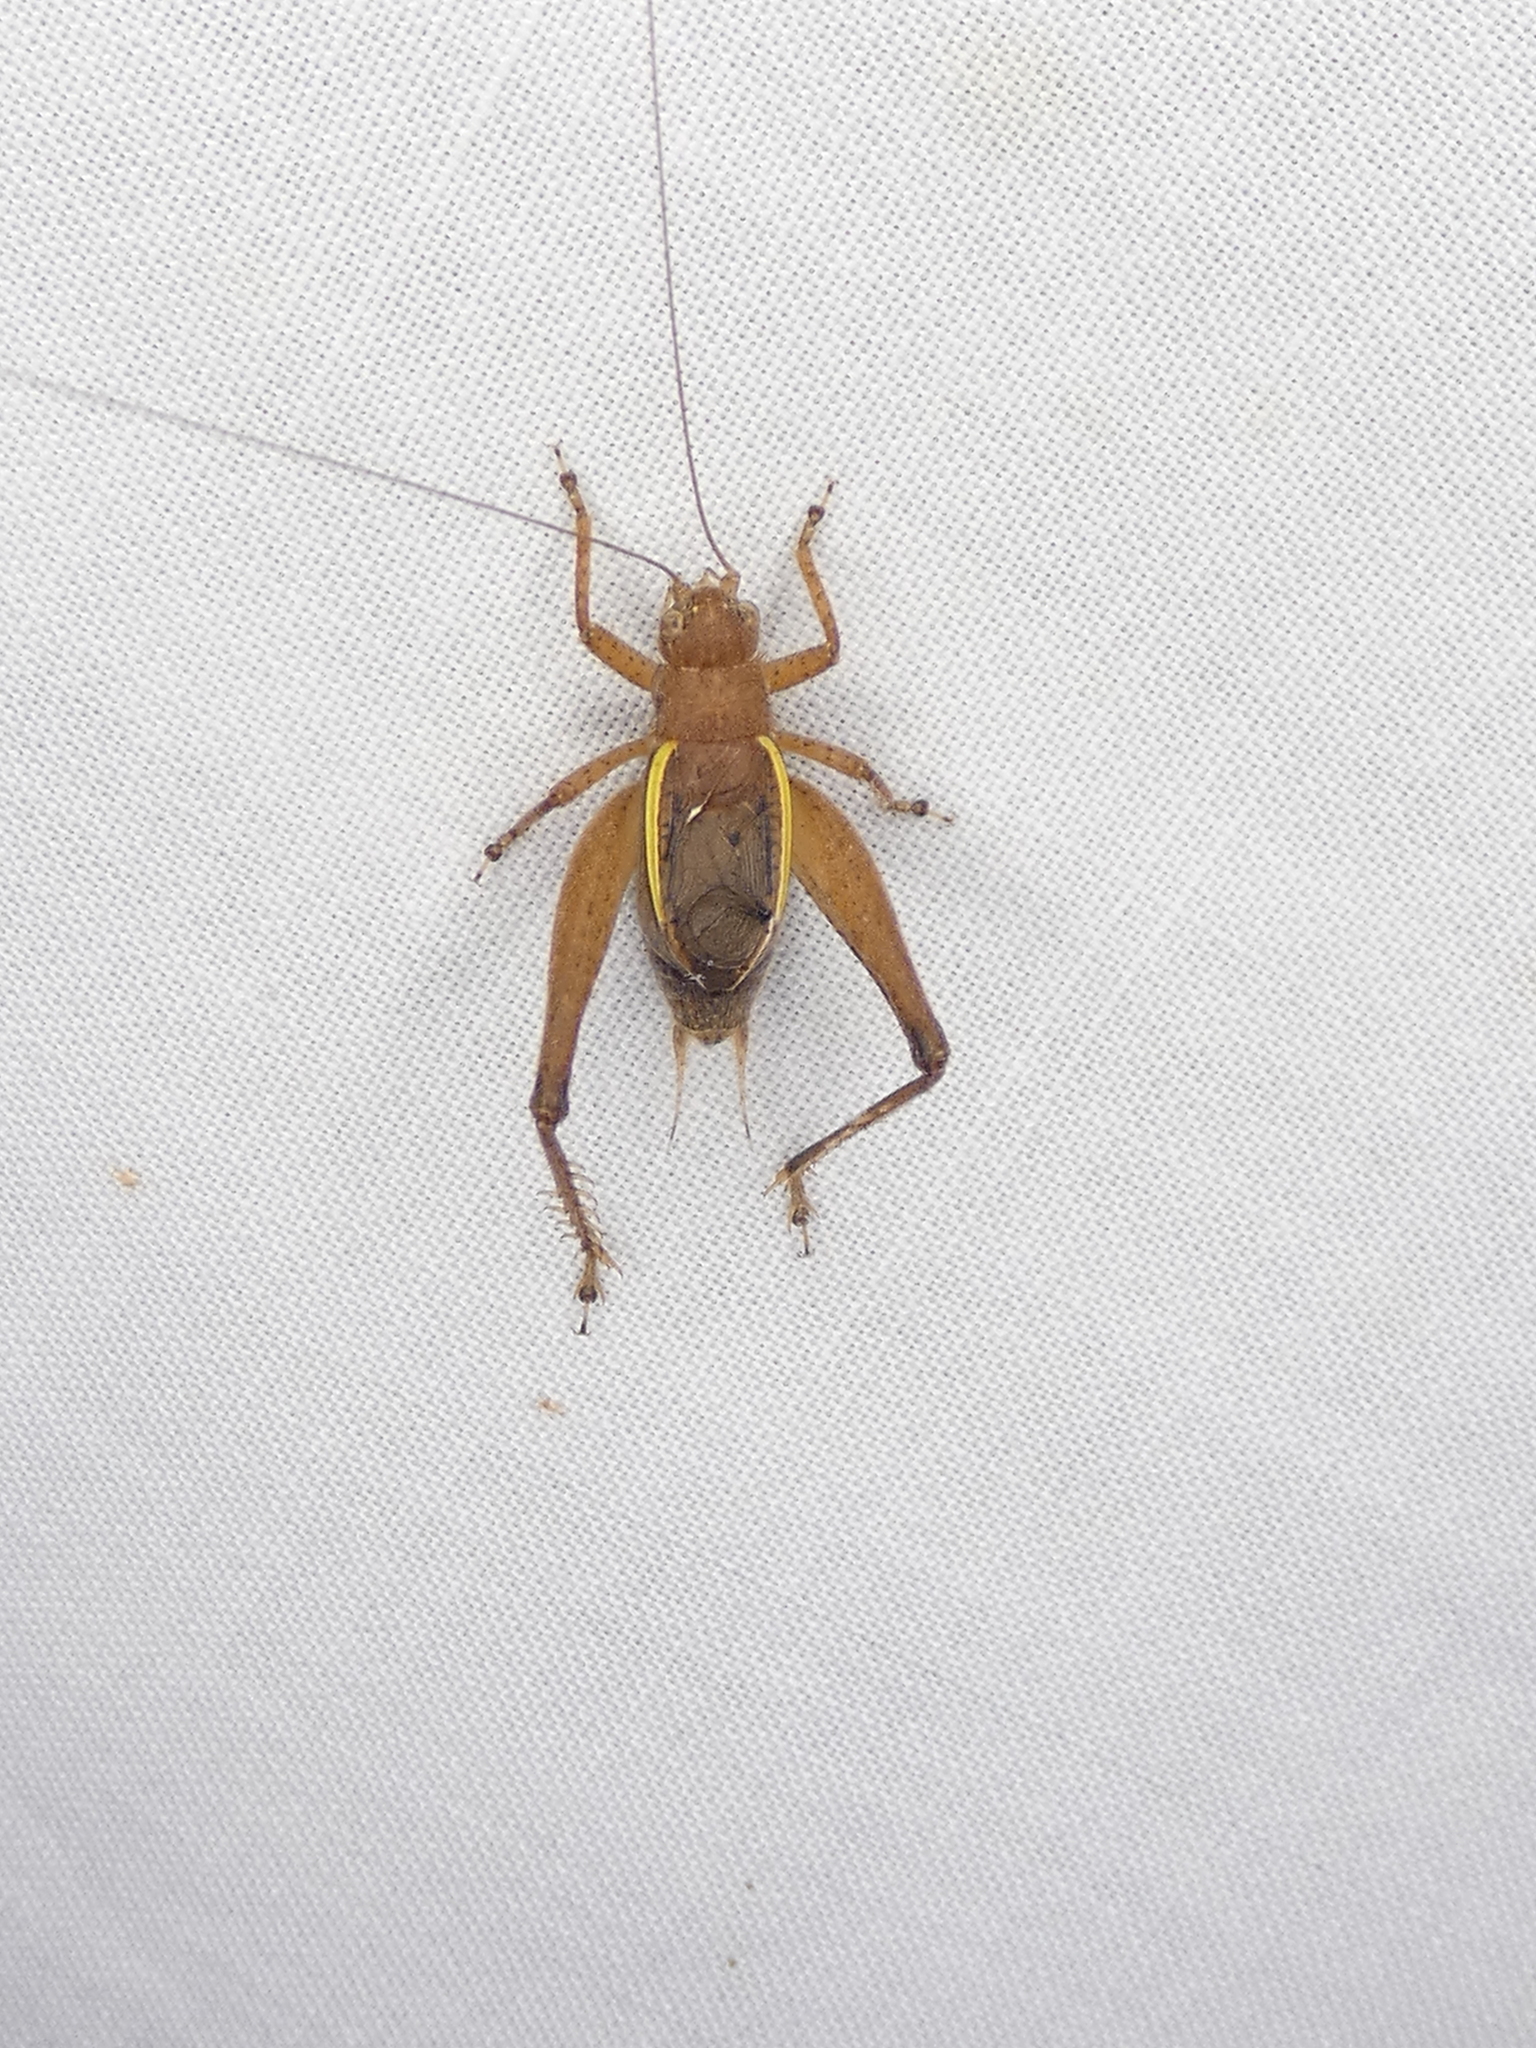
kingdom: Animalia
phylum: Arthropoda
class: Insecta
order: Orthoptera
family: Gryllidae
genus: Hapithus
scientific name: Hapithus agitator
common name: Restless bush cricket
